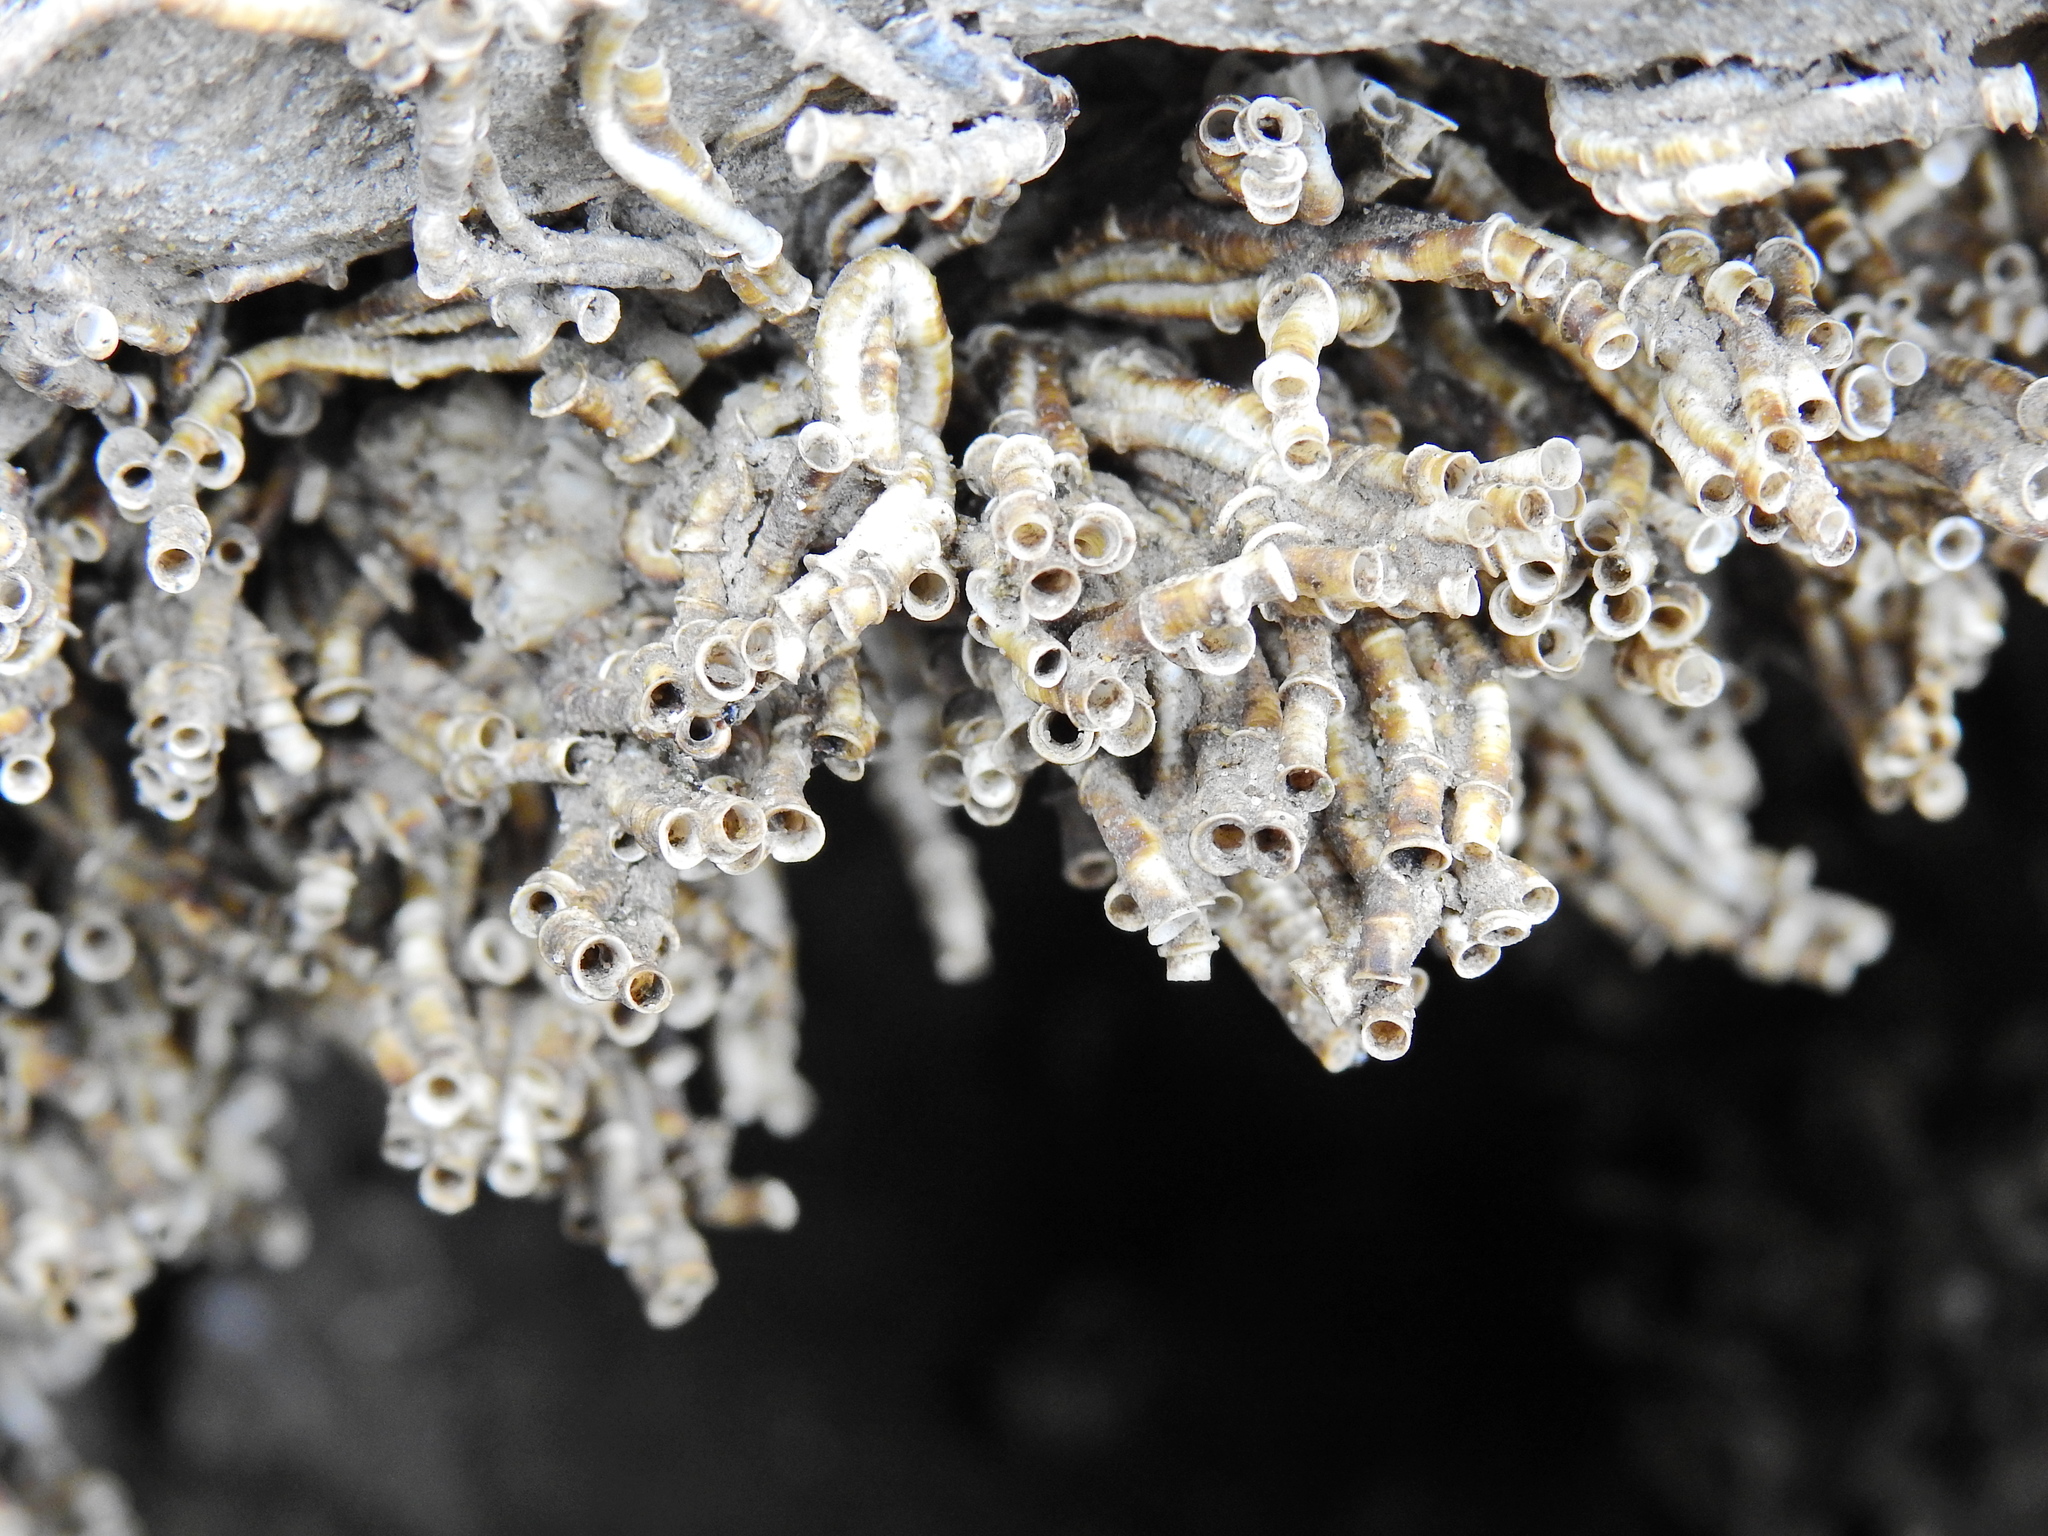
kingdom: Animalia
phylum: Annelida
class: Polychaeta
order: Sabellida
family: Serpulidae
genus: Ficopomatus
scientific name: Ficopomatus enigmaticus
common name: Australian tubeworm
